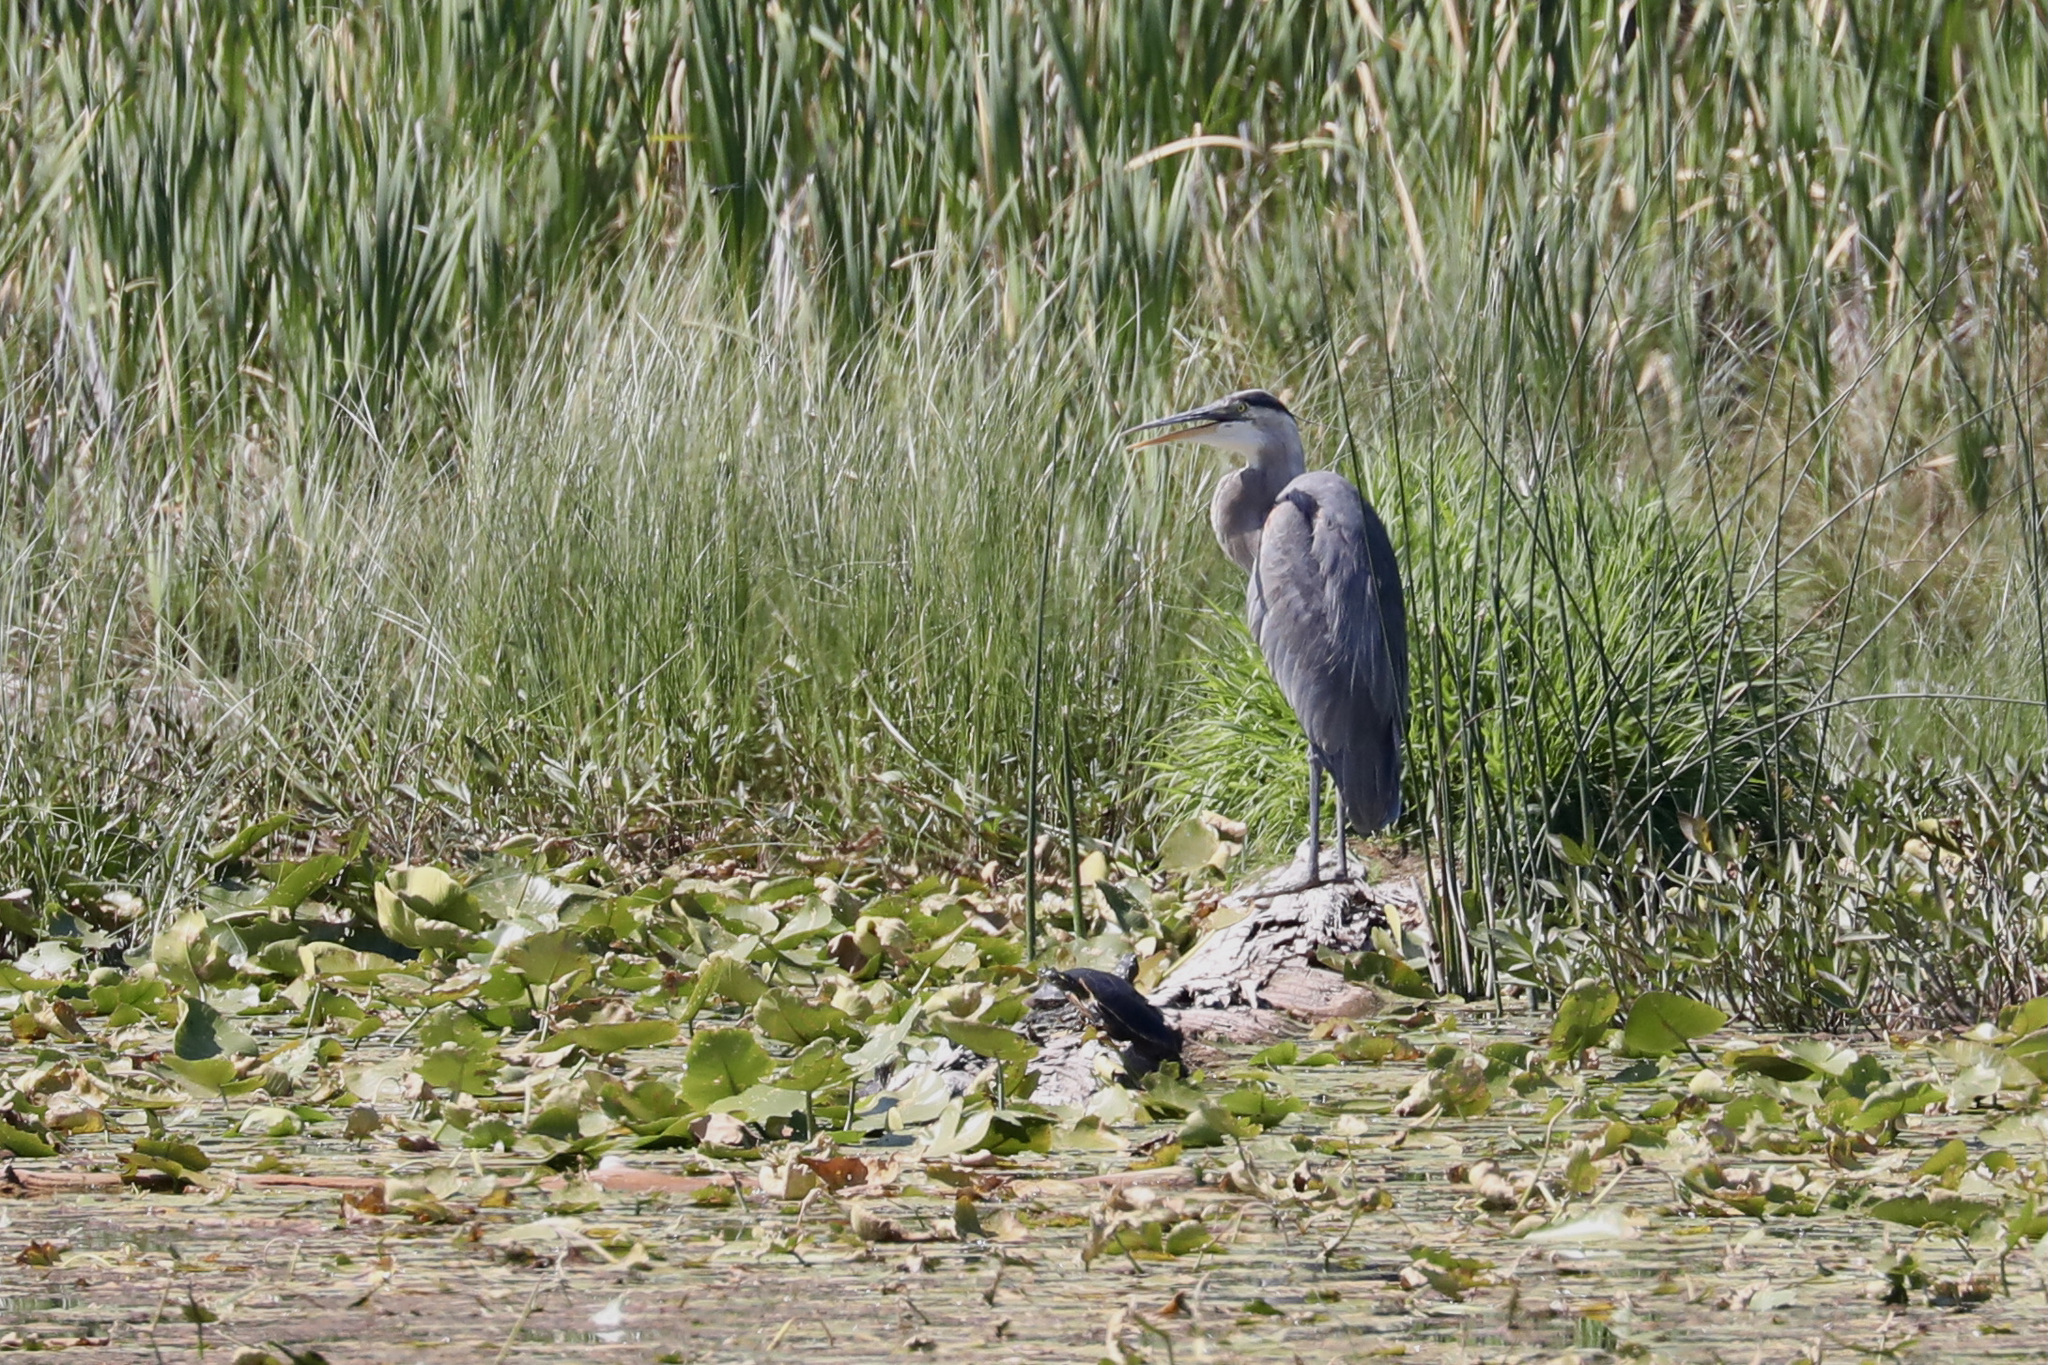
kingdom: Animalia
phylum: Chordata
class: Testudines
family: Emydidae
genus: Chrysemys
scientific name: Chrysemys picta
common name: Painted turtle
